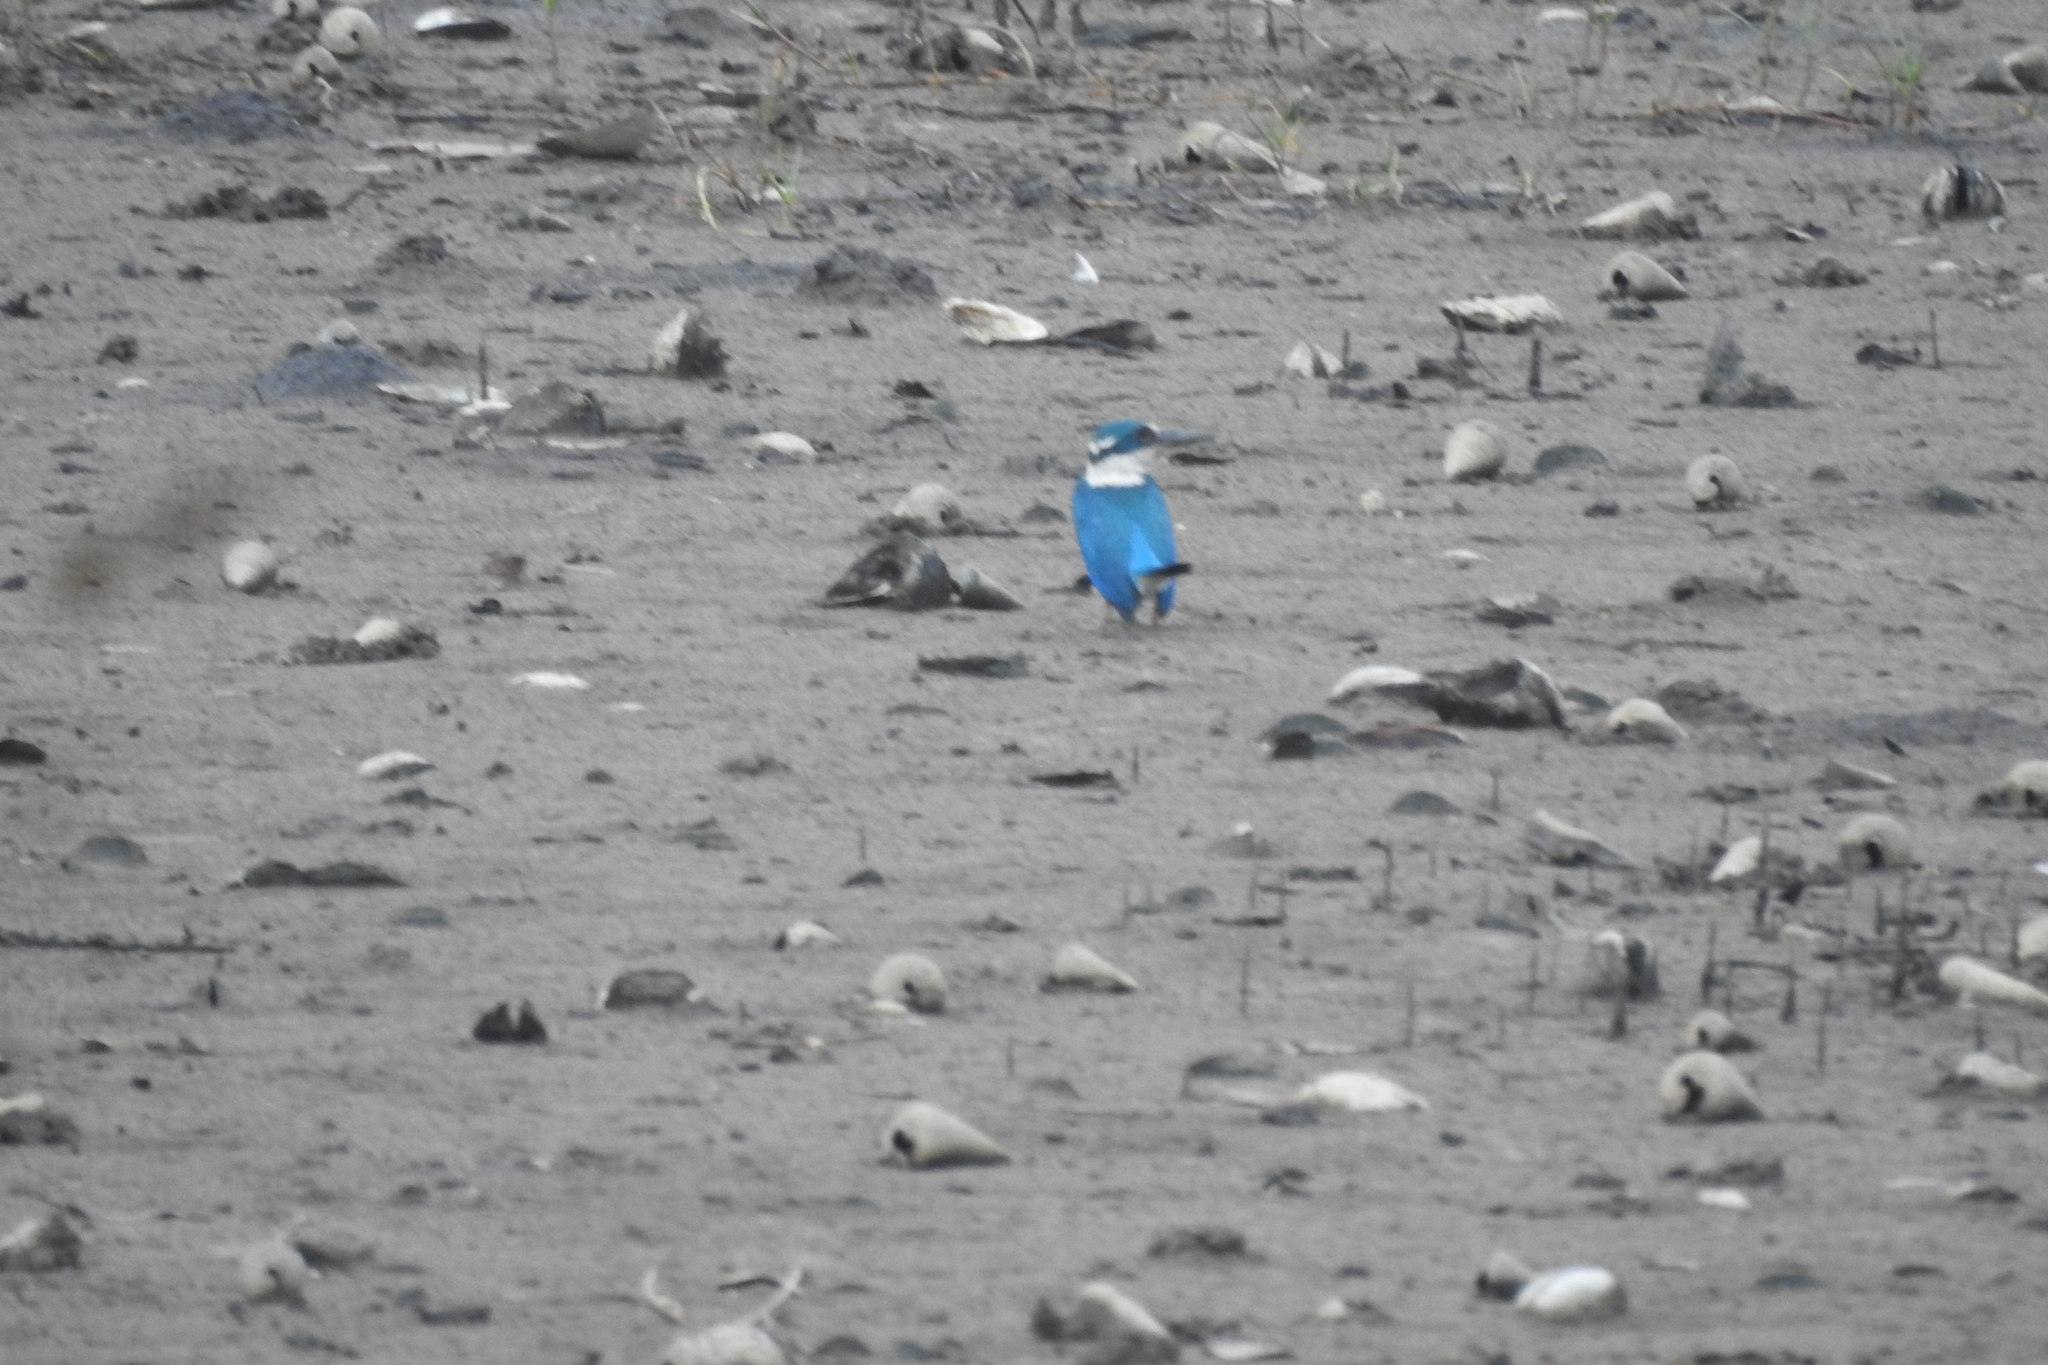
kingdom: Animalia
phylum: Chordata
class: Aves
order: Coraciiformes
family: Alcedinidae
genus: Todiramphus
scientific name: Todiramphus chloris
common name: Collared kingfisher
